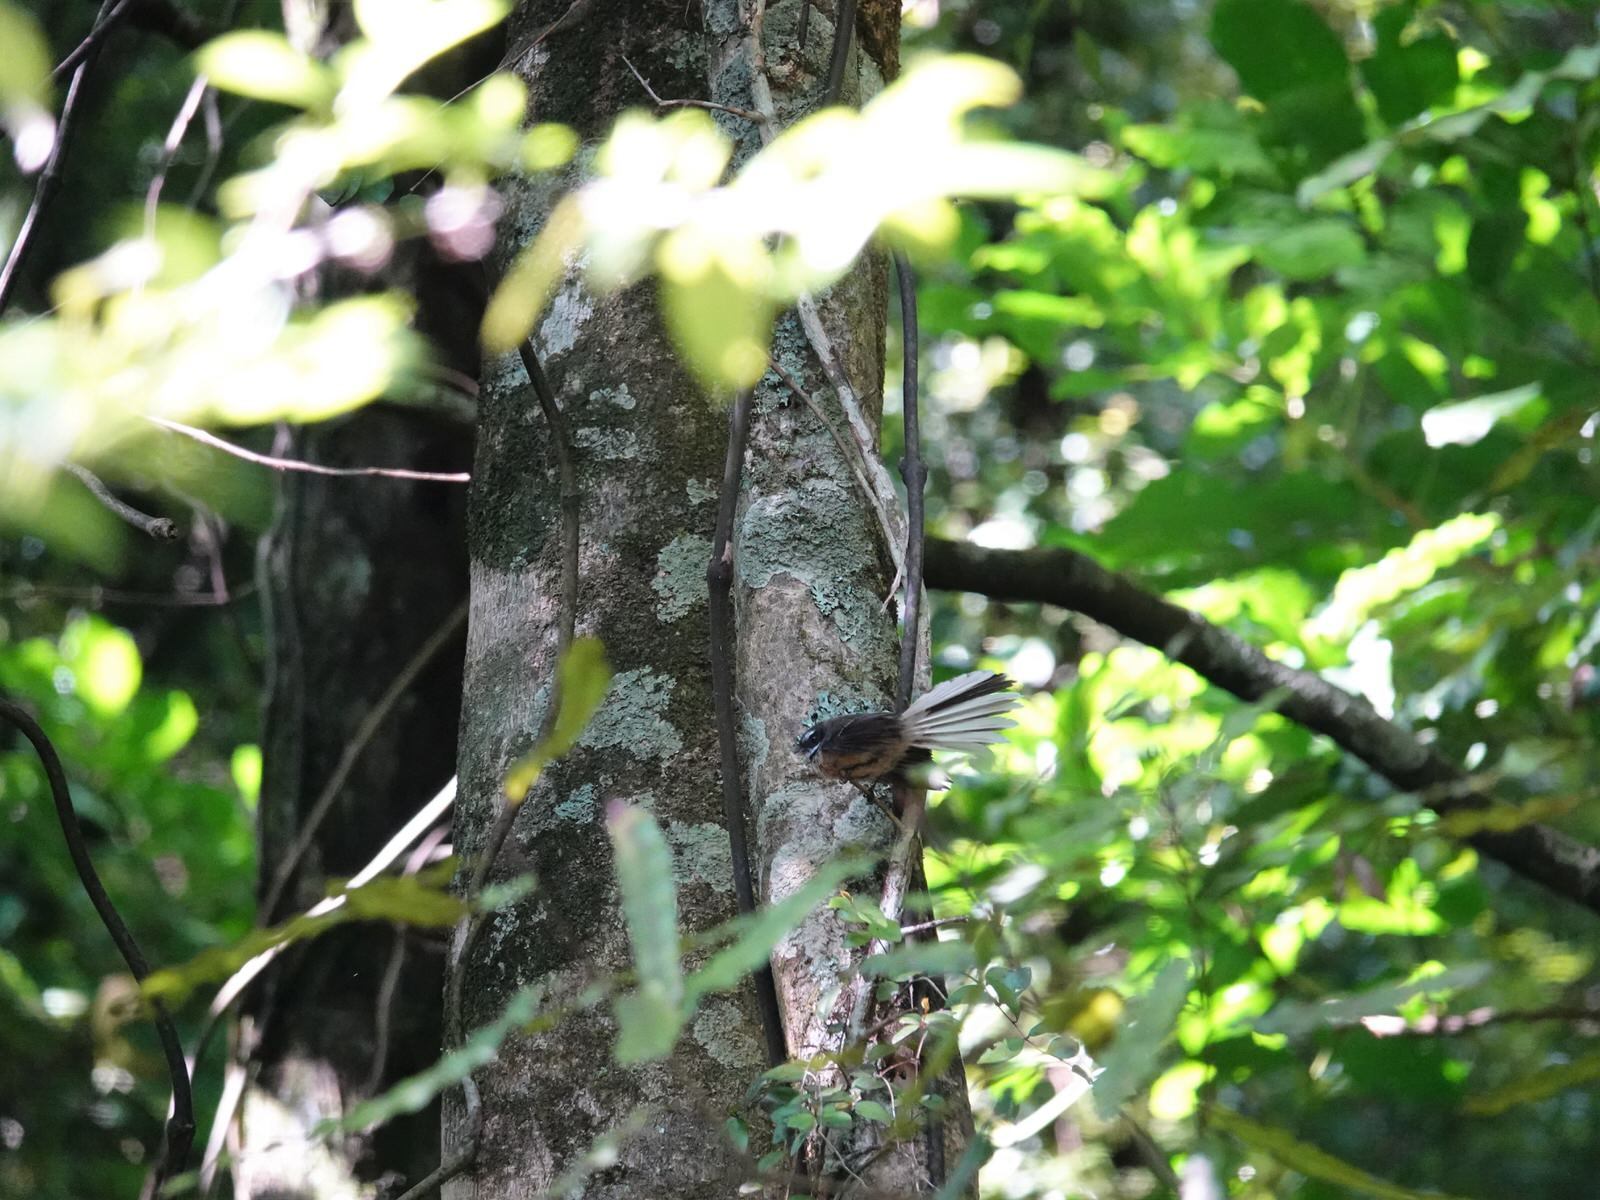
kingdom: Animalia
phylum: Chordata
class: Aves
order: Passeriformes
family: Rhipiduridae
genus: Rhipidura
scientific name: Rhipidura fuliginosa
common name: New zealand fantail
